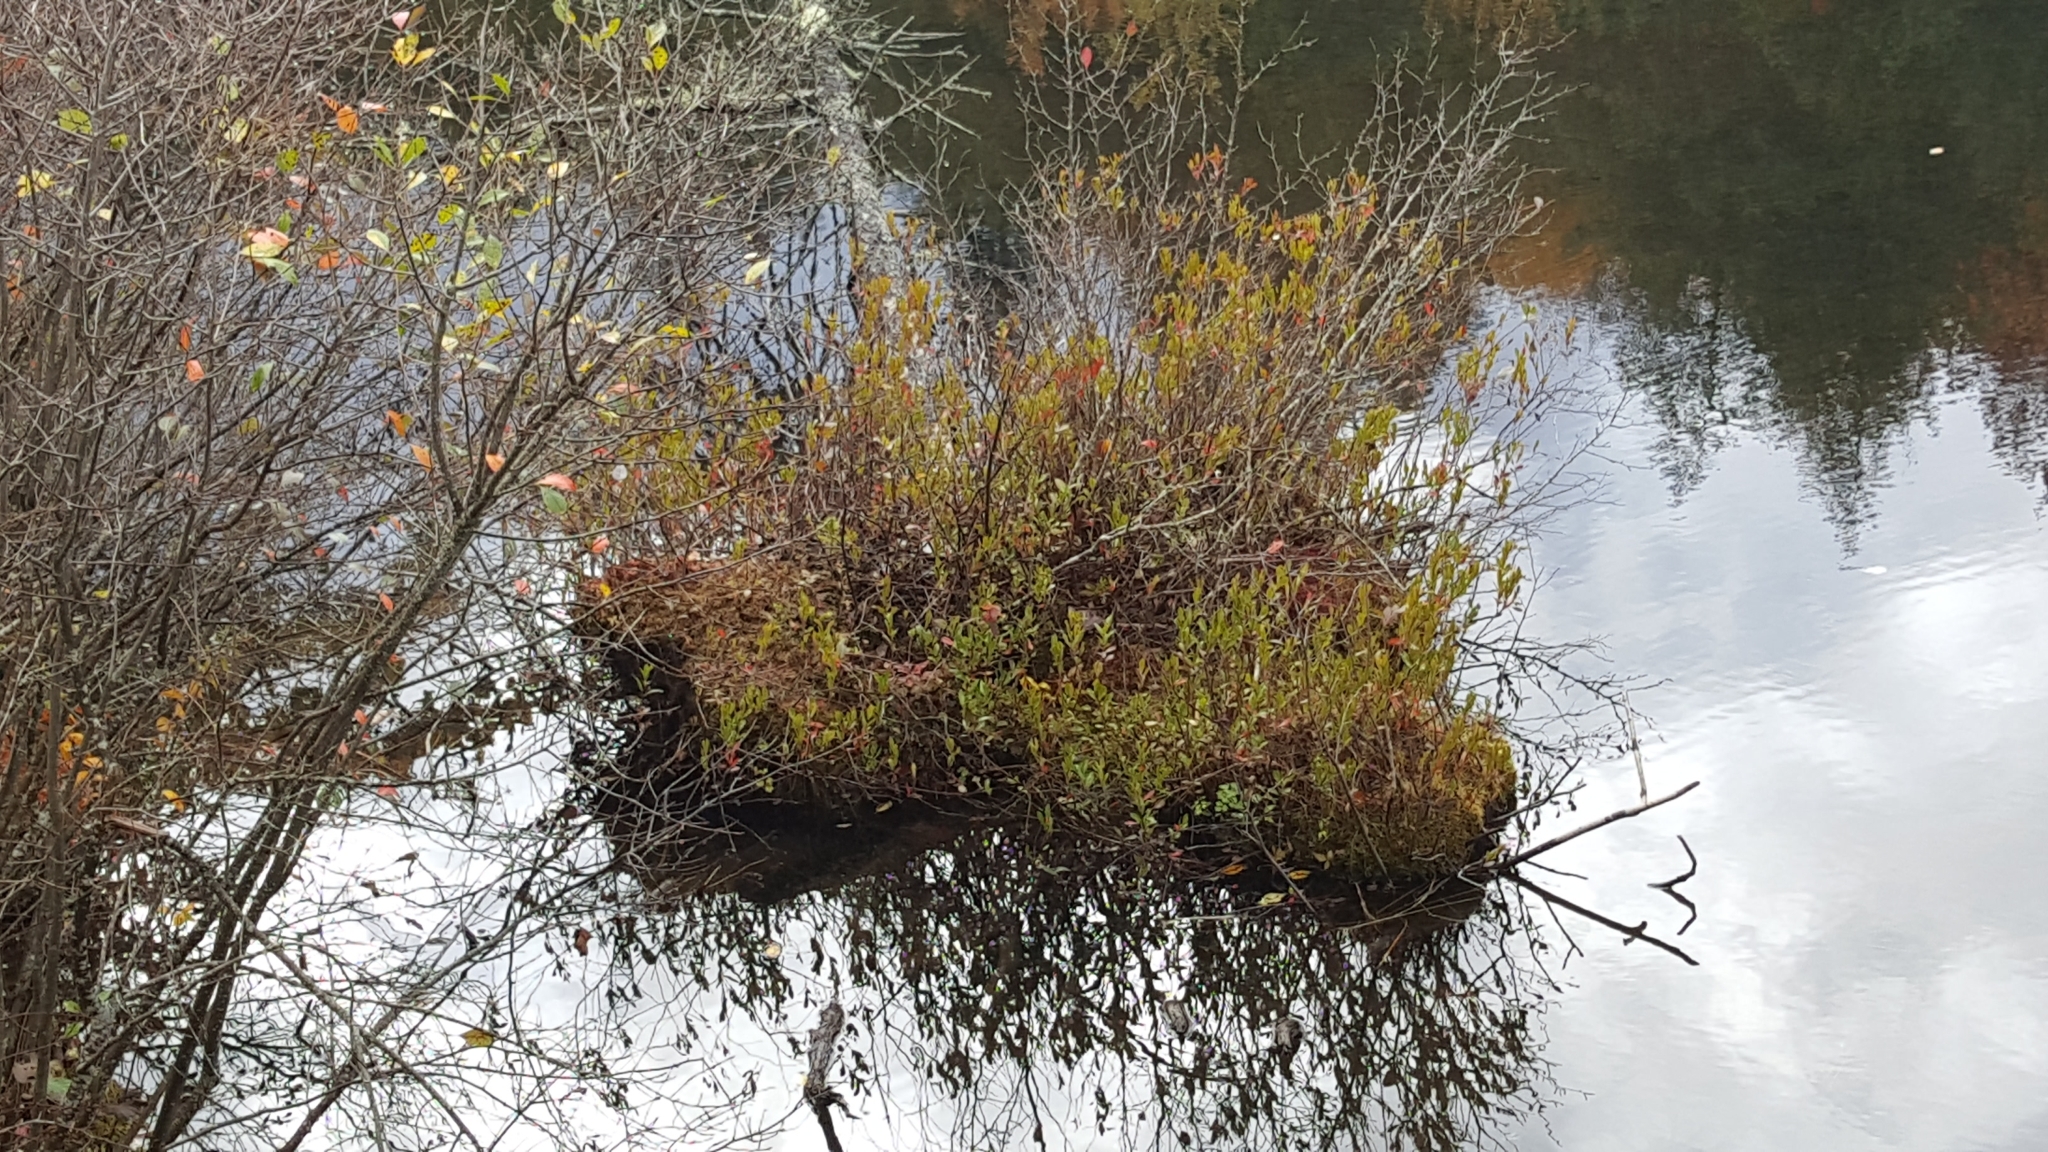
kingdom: Plantae
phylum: Tracheophyta
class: Magnoliopsida
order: Ericales
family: Ericaceae
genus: Chamaedaphne
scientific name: Chamaedaphne calyculata
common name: Leatherleaf
